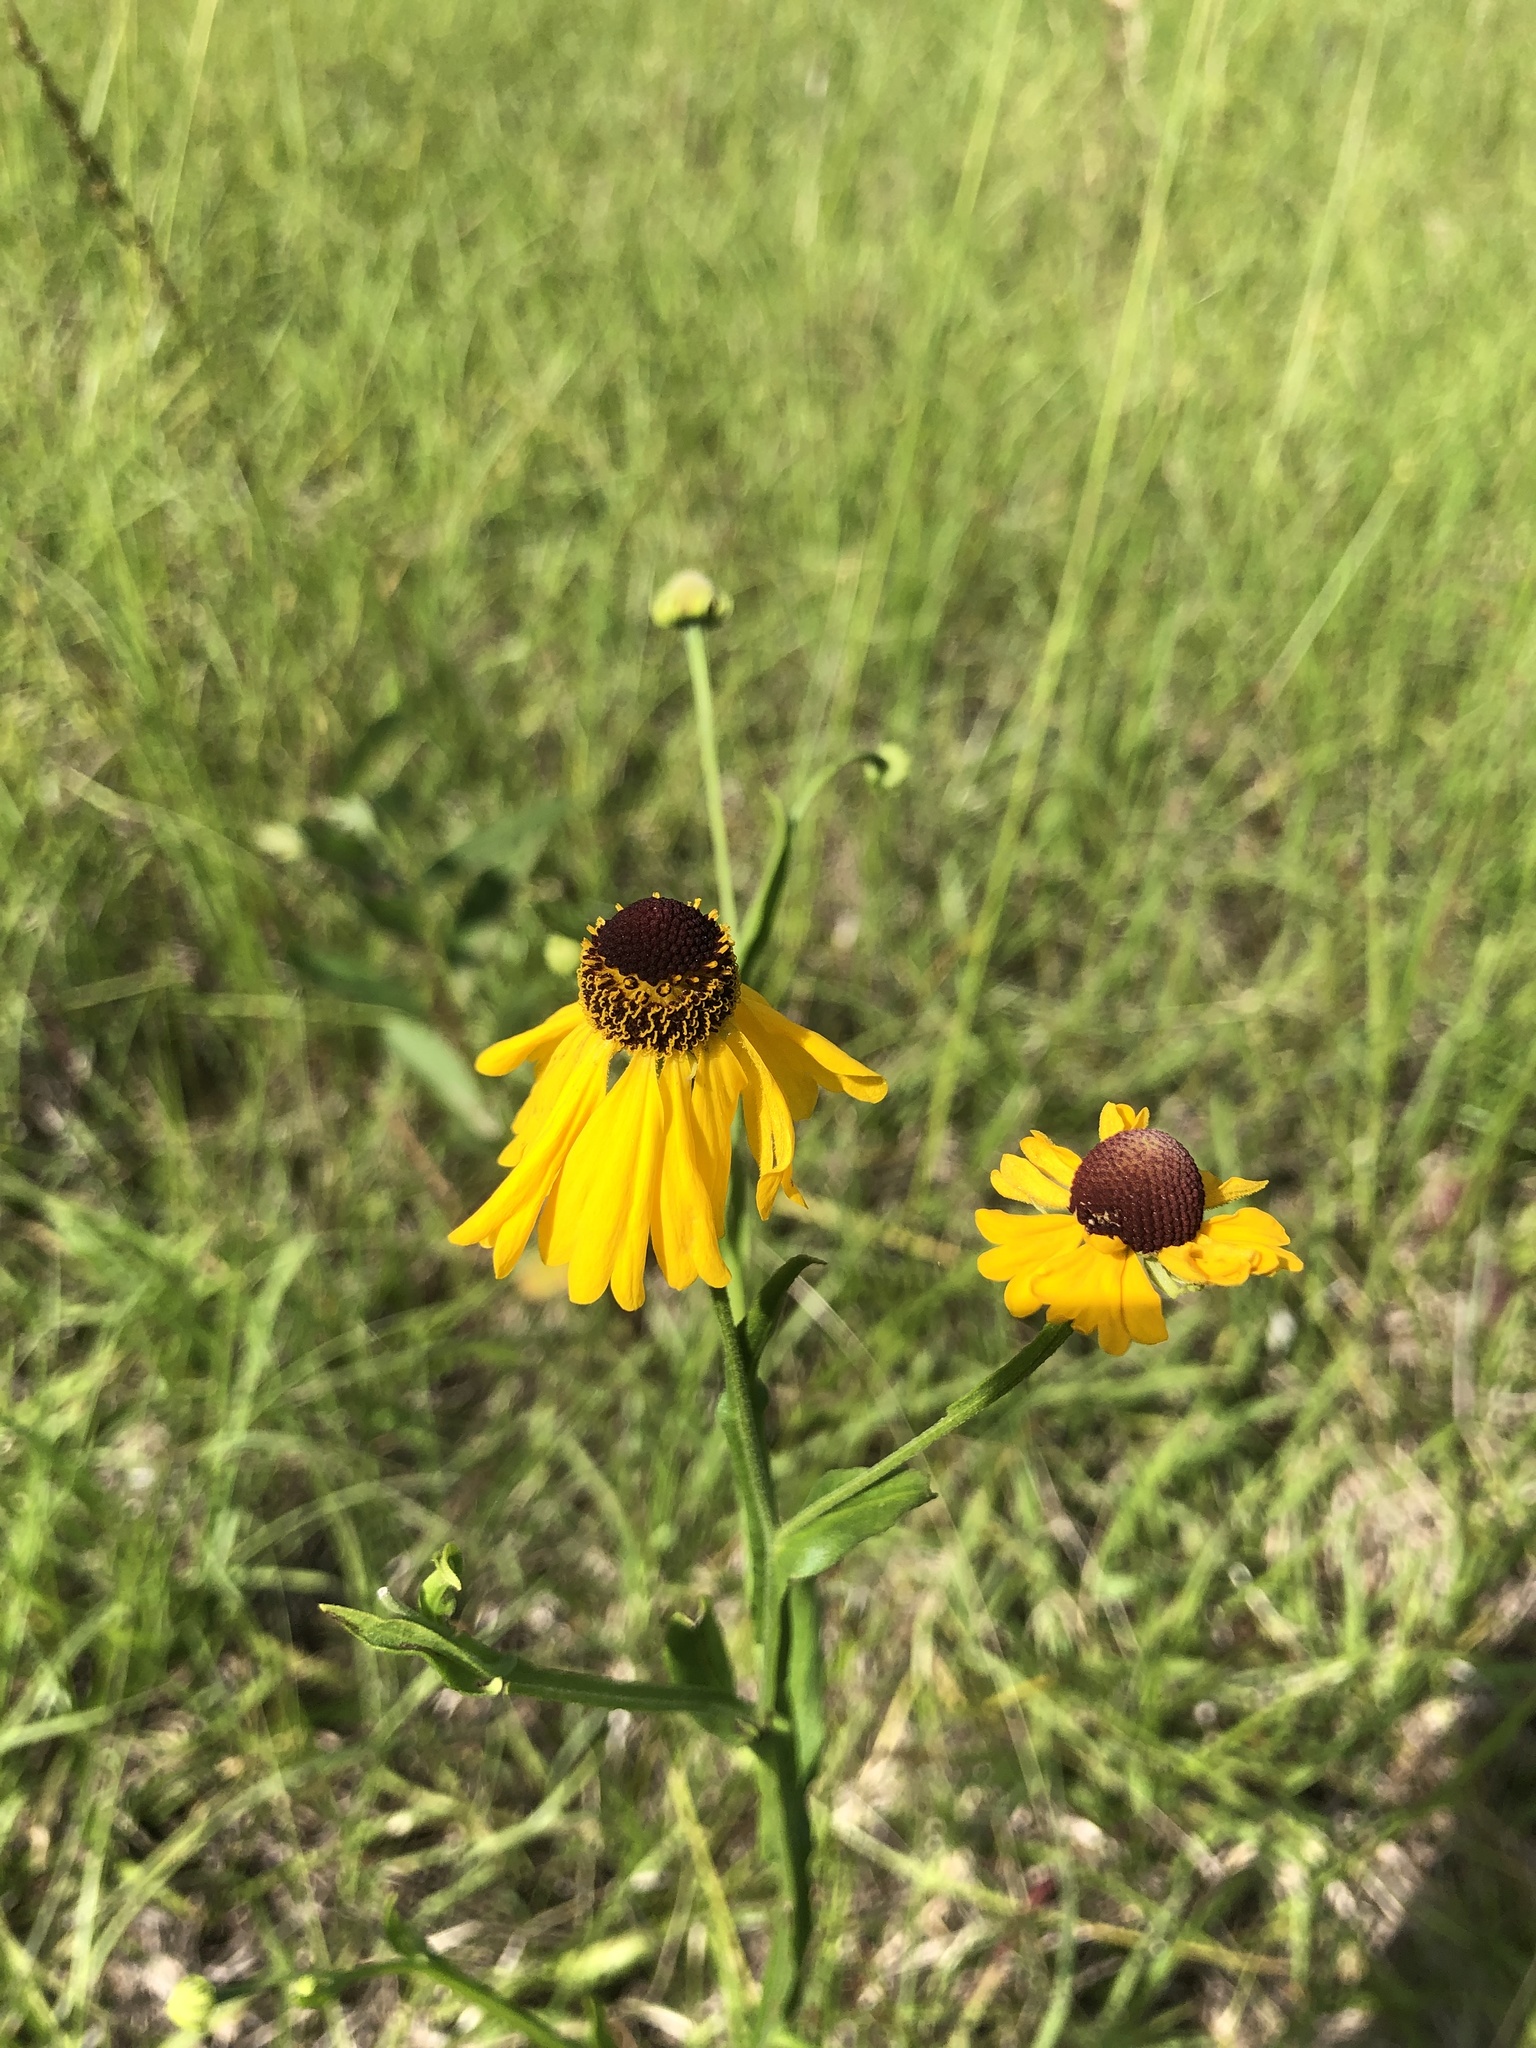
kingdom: Plantae
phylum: Tracheophyta
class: Magnoliopsida
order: Asterales
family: Asteraceae
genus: Helenium
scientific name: Helenium flexuosum
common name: Naked-flowered sneezeweed
